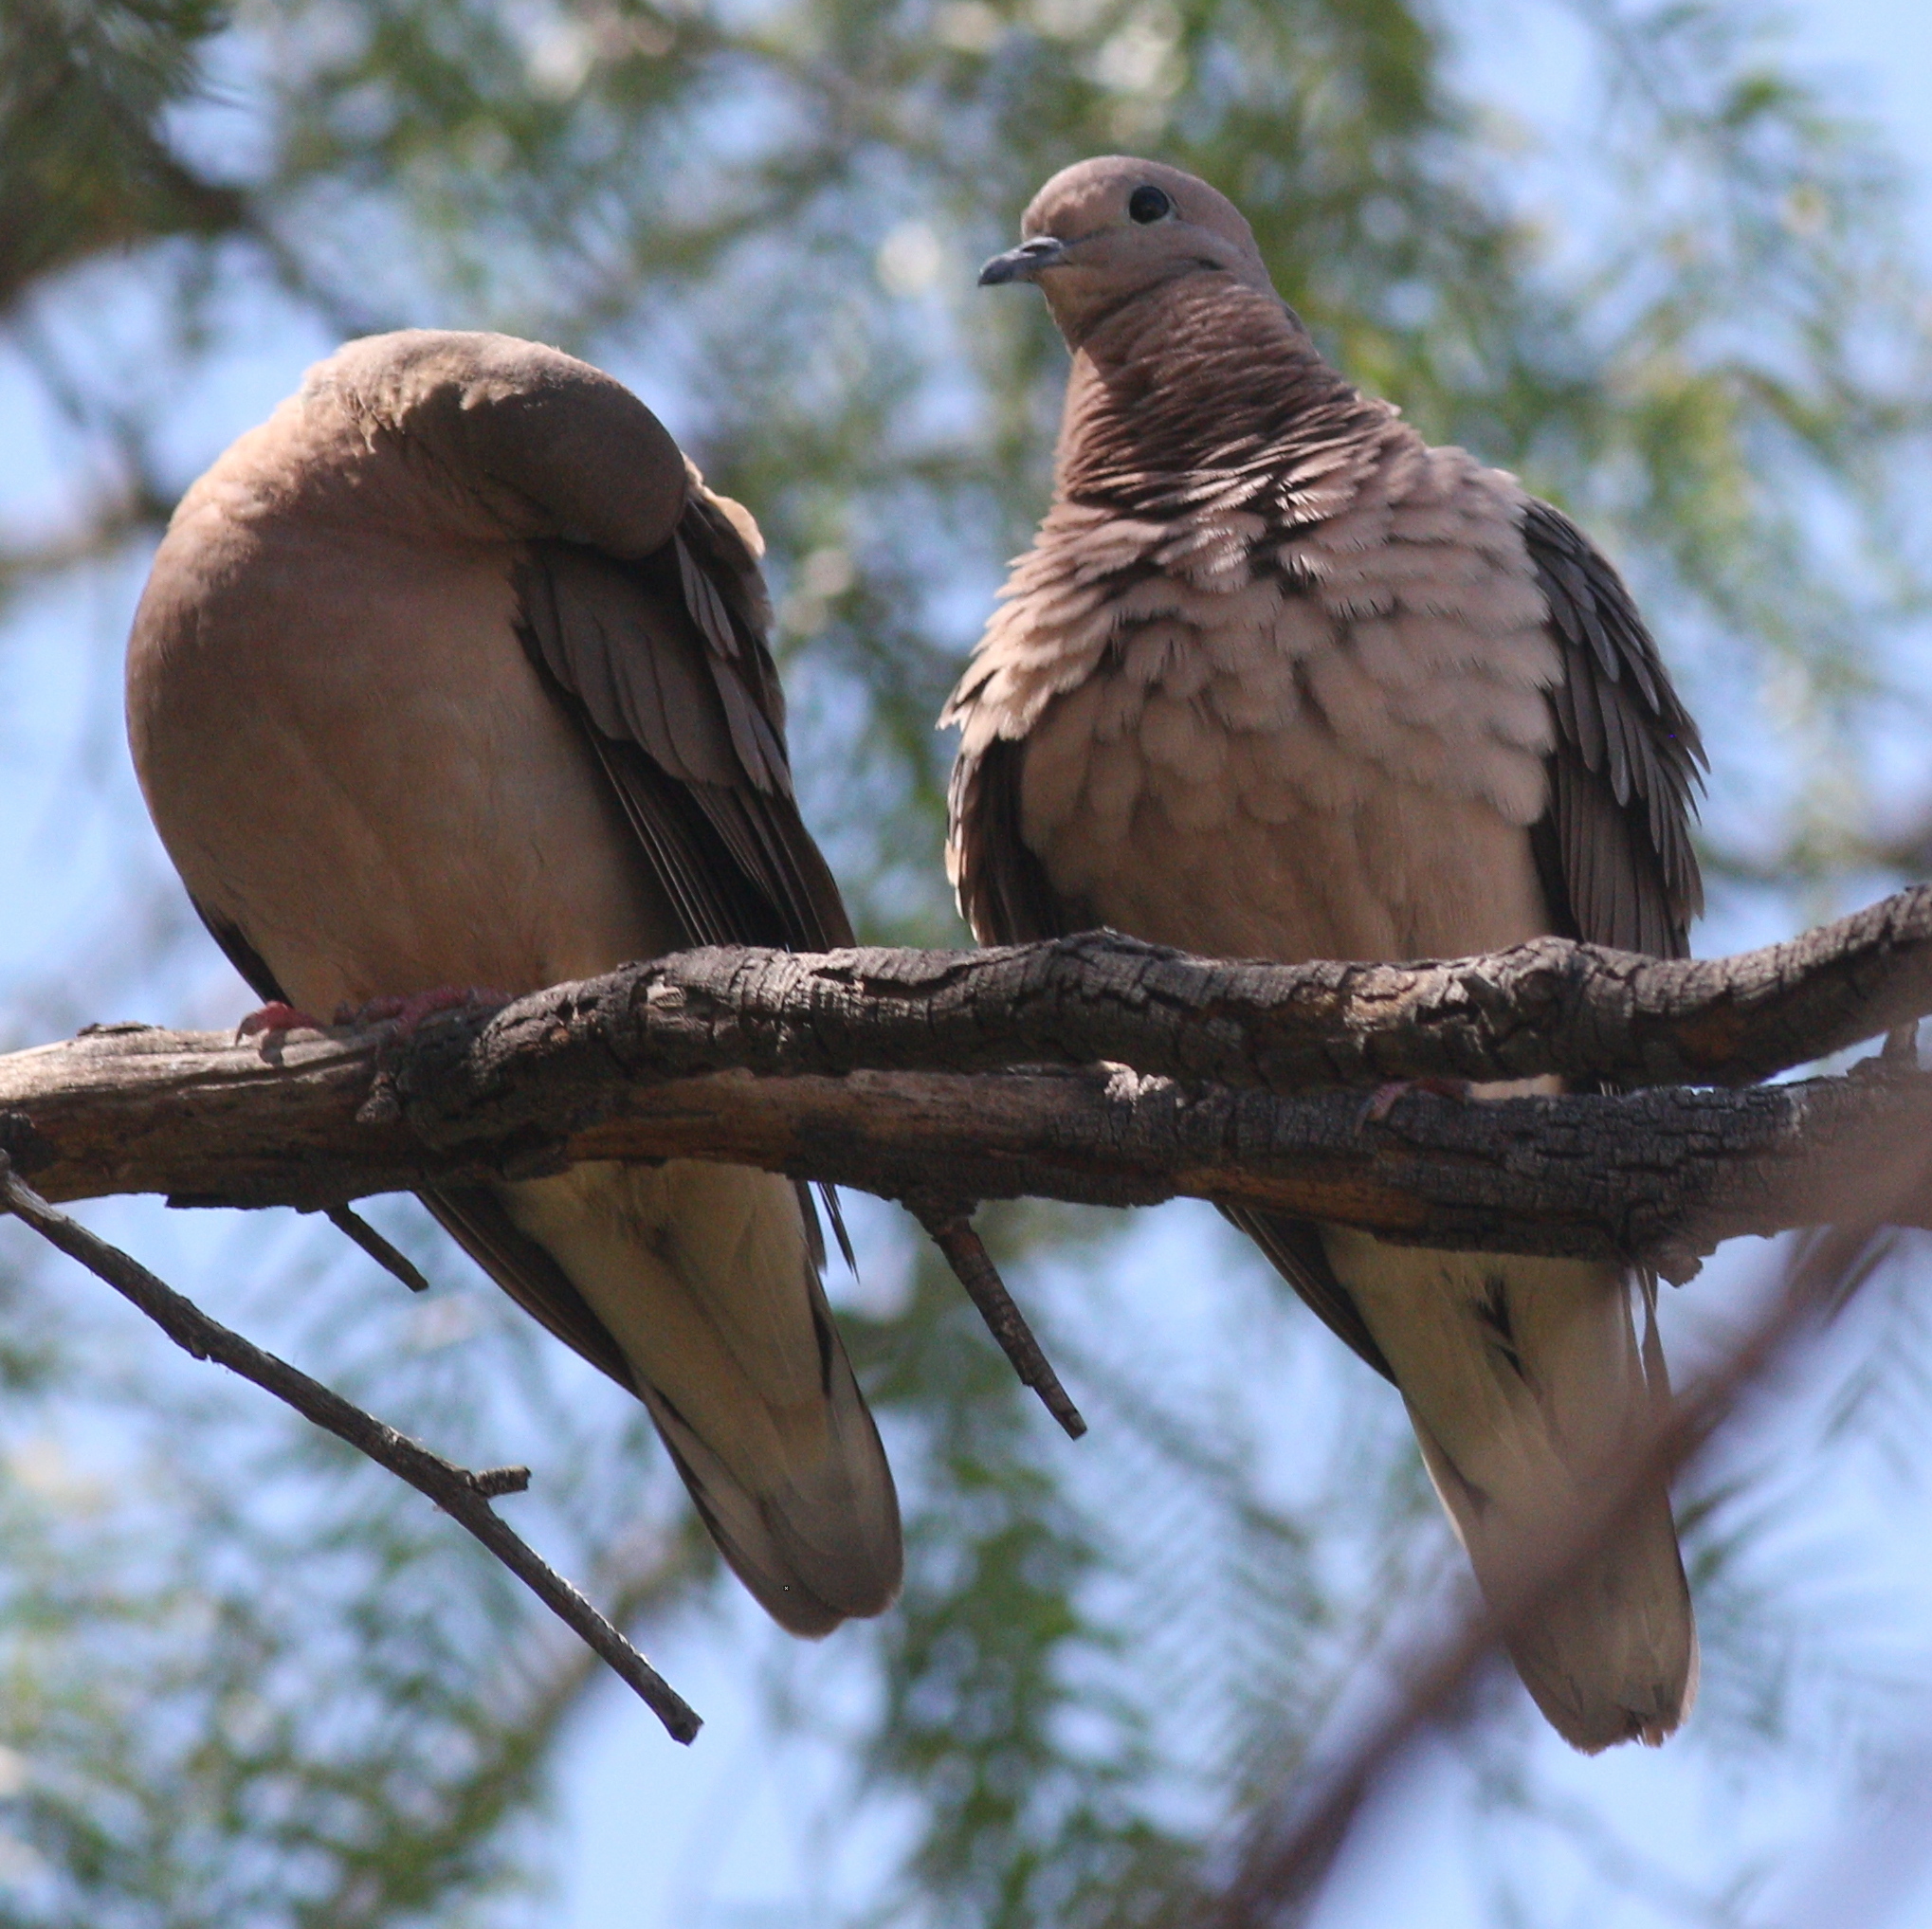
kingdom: Animalia
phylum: Chordata
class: Aves
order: Columbiformes
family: Columbidae
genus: Zenaida
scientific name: Zenaida auriculata
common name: Eared dove
